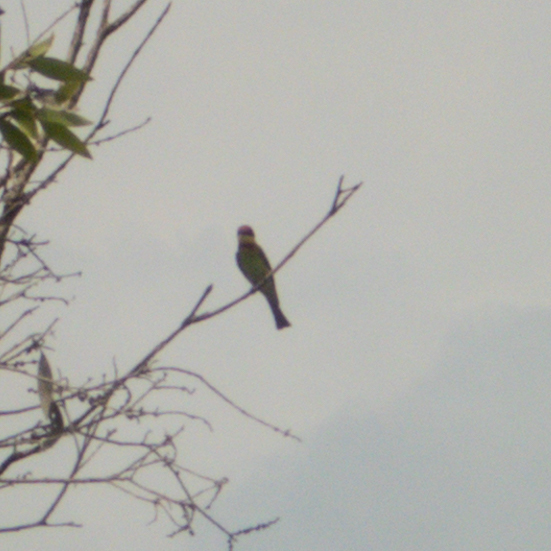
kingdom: Animalia
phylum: Chordata
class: Aves
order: Coraciiformes
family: Meropidae
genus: Merops
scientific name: Merops leschenaulti
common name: Chestnut-headed bee-eater
